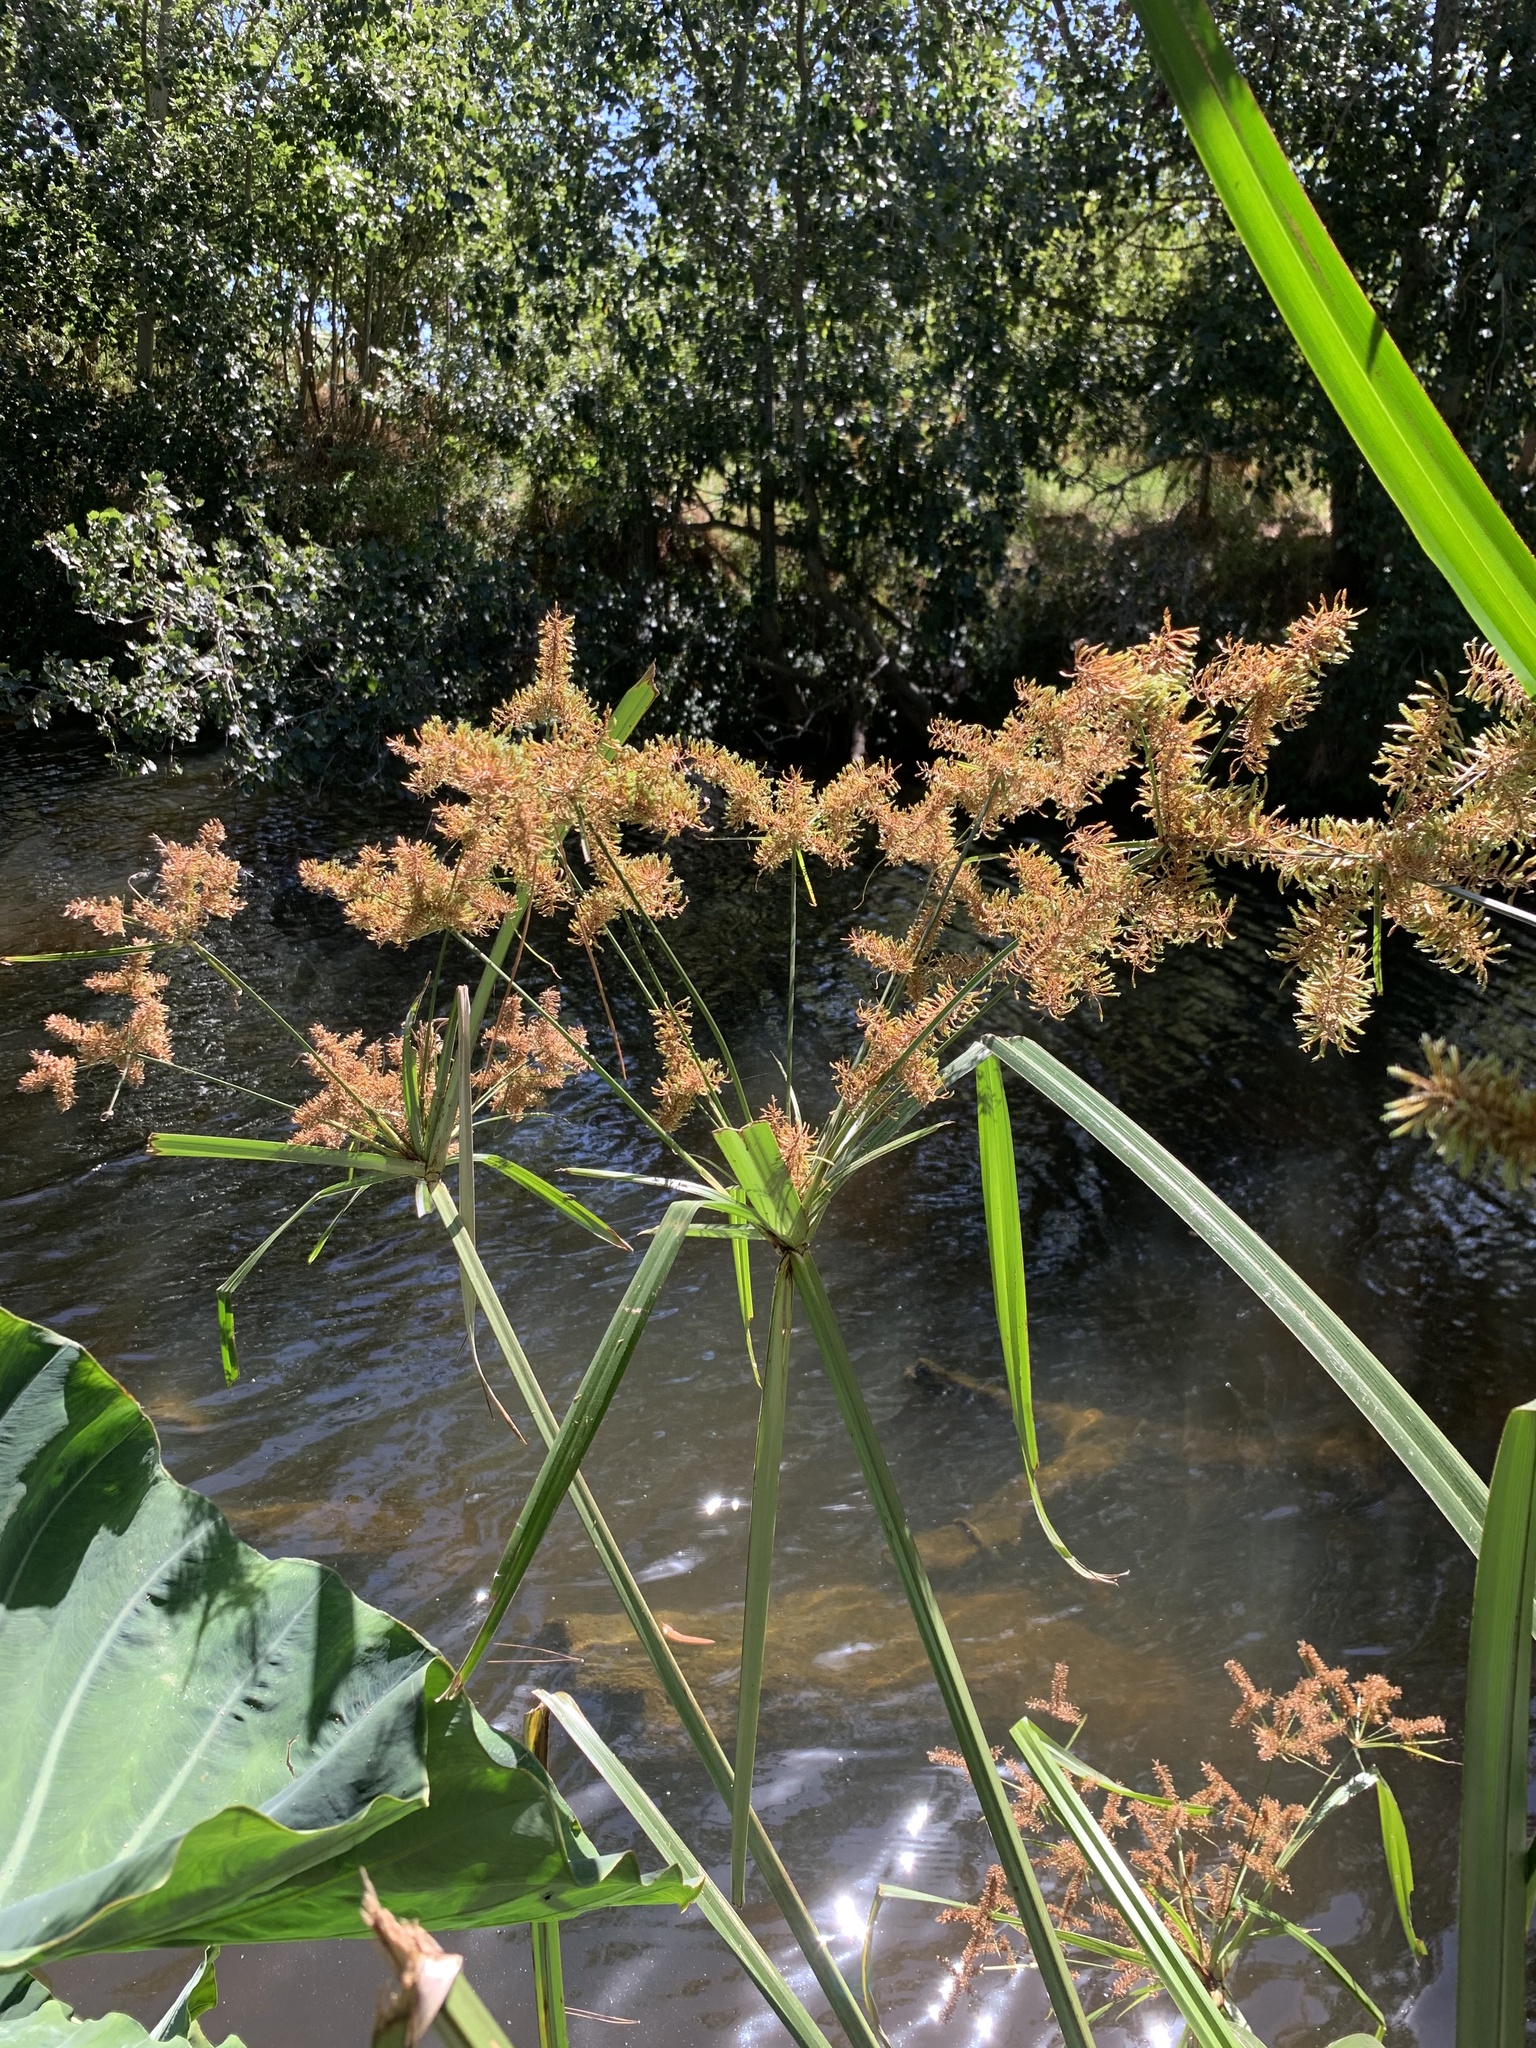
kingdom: Plantae
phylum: Tracheophyta
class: Liliopsida
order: Poales
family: Cyperaceae
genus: Cyperus
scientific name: Cyperus dives
